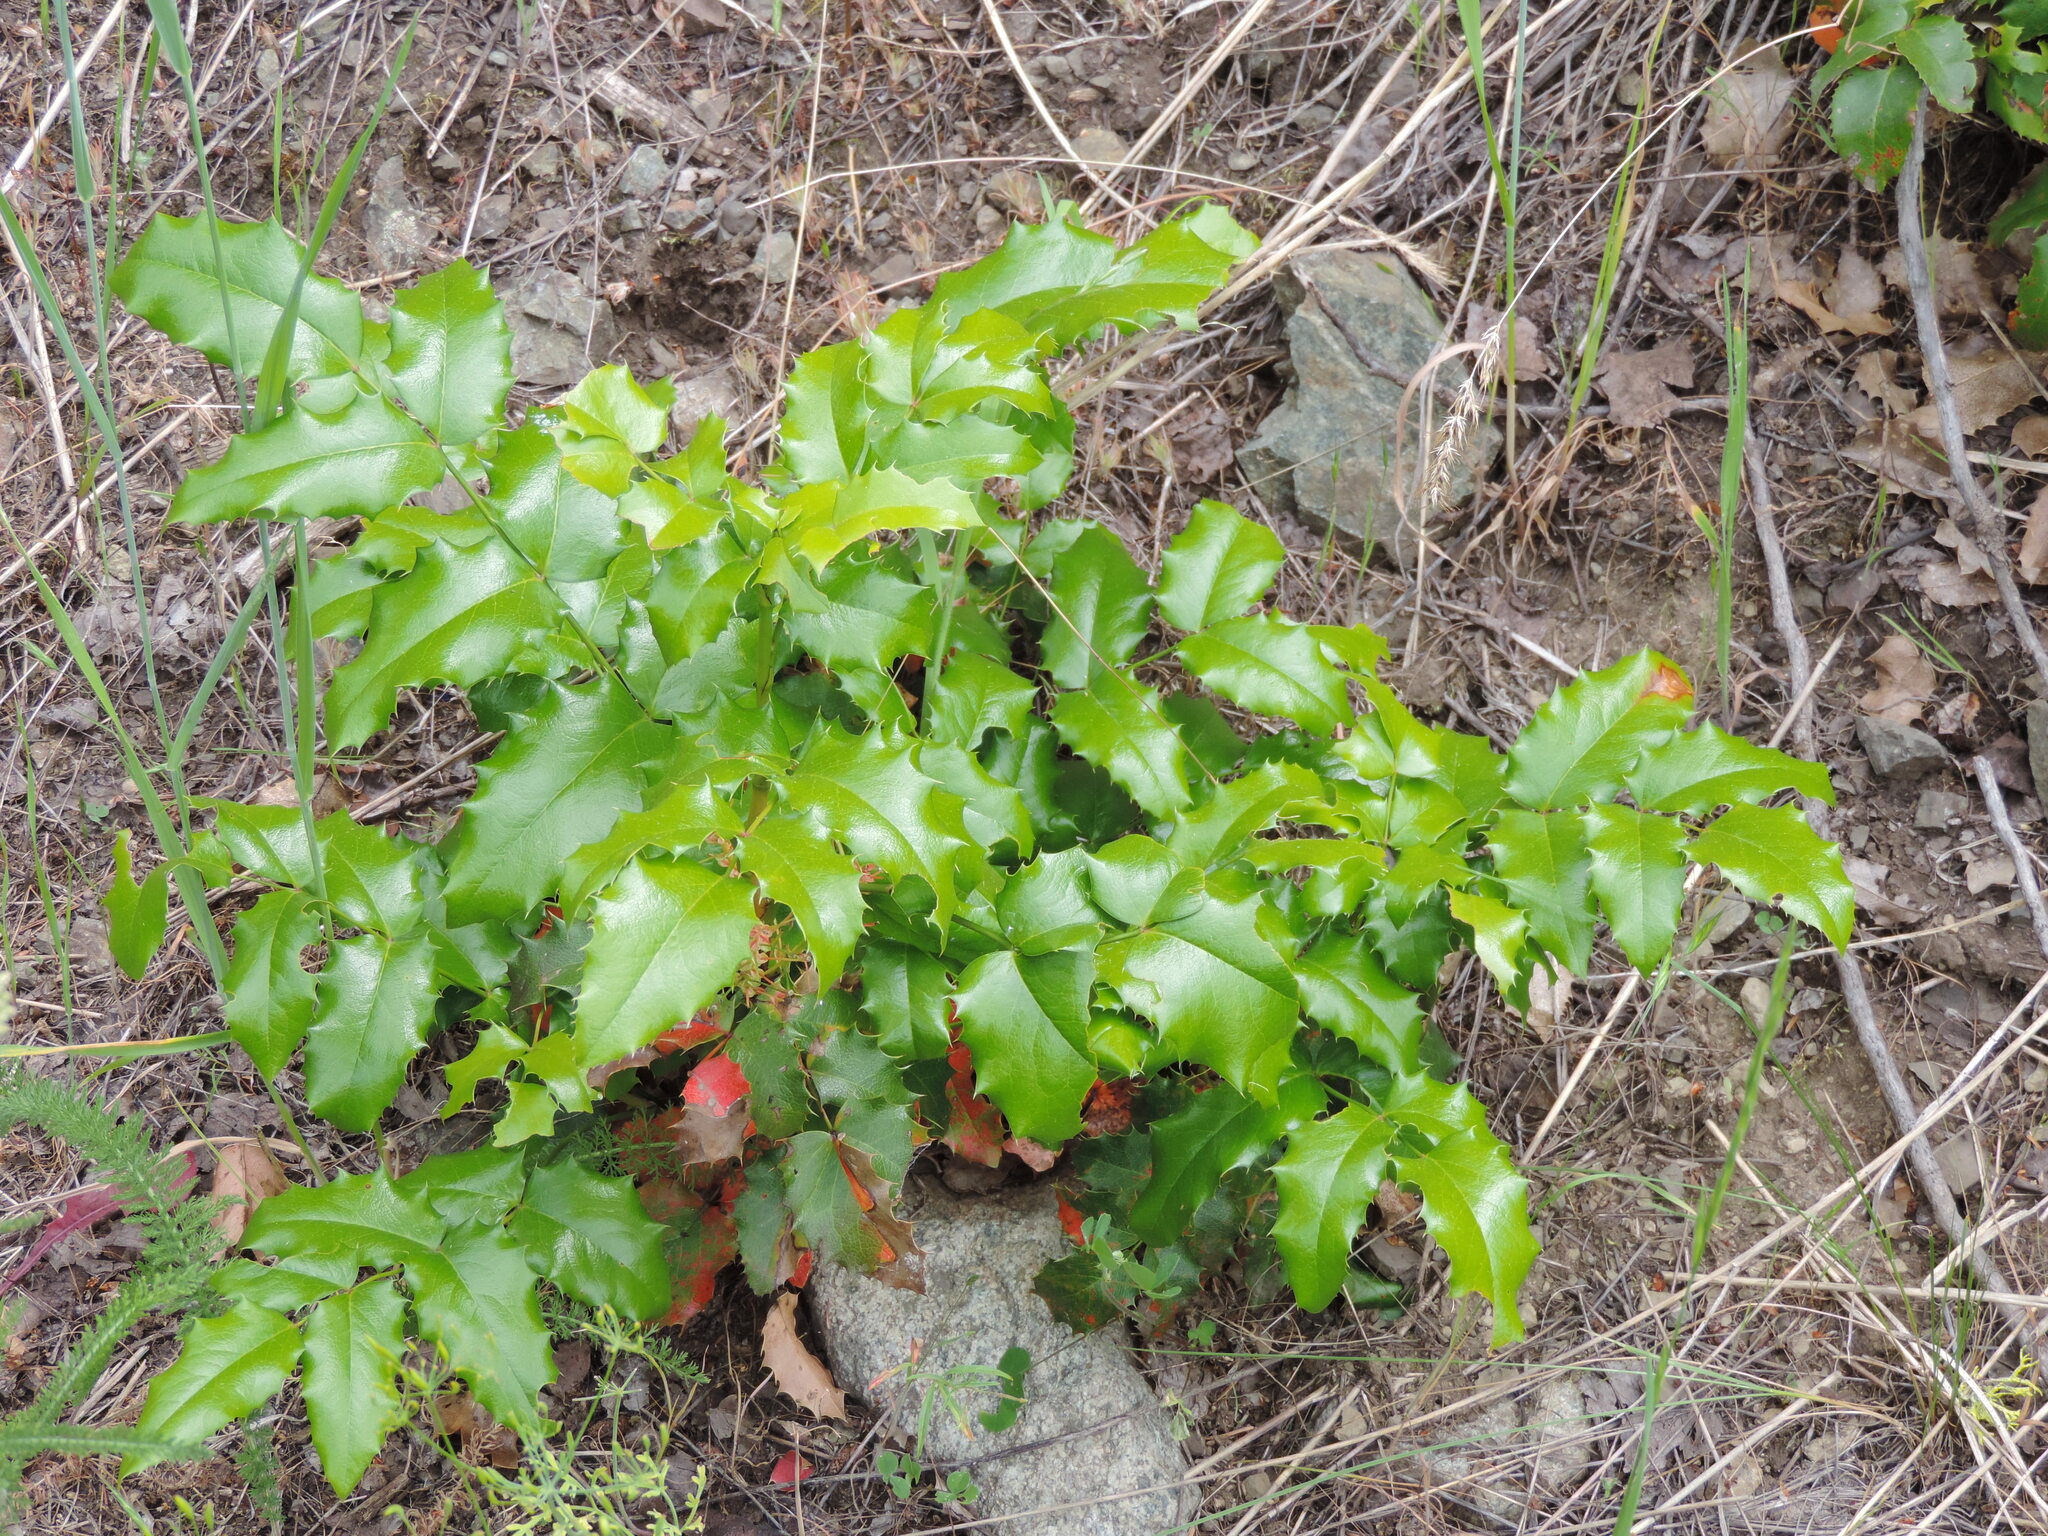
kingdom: Plantae
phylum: Tracheophyta
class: Magnoliopsida
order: Ranunculales
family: Berberidaceae
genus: Mahonia
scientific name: Mahonia aquifolium
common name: Oregon-grape
